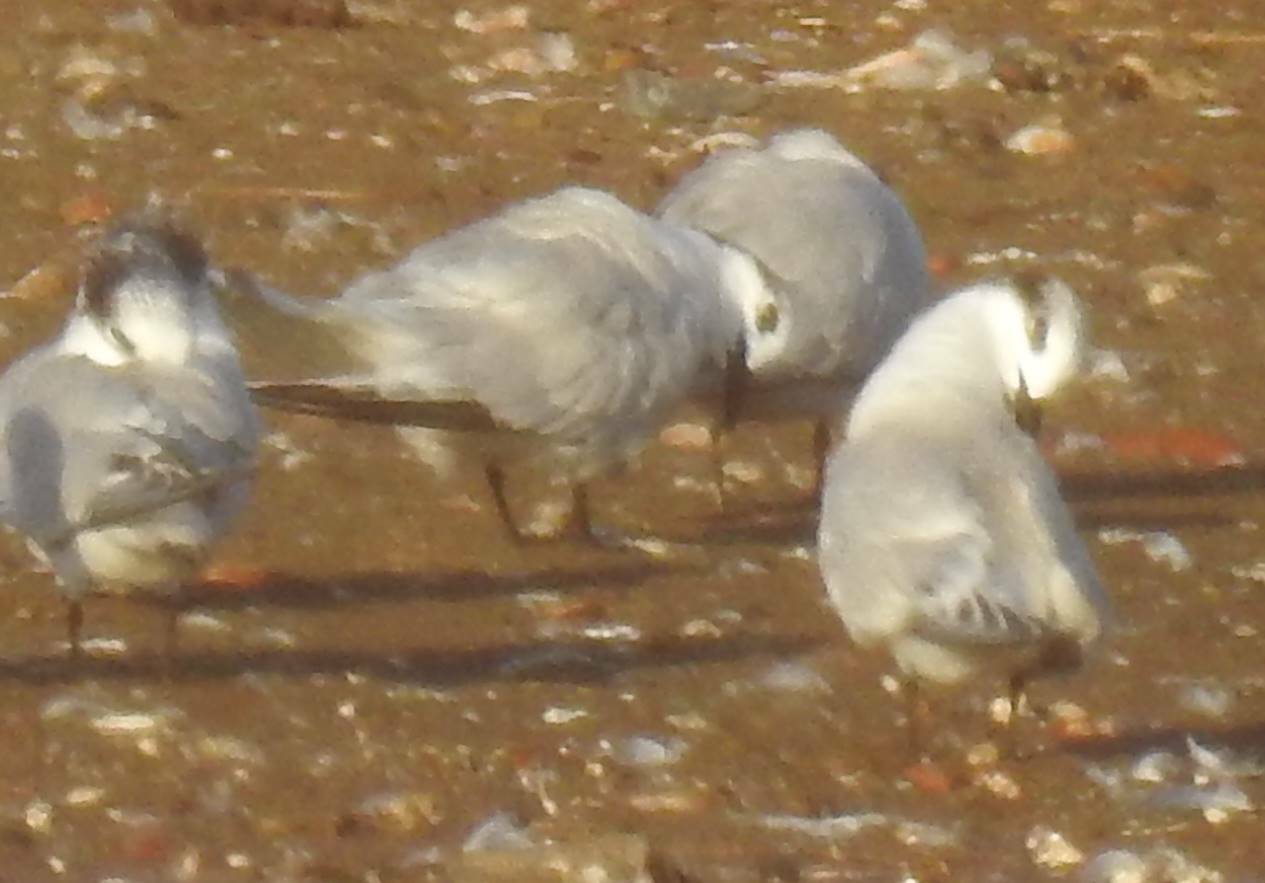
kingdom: Animalia
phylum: Chordata
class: Aves
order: Charadriiformes
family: Laridae
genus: Thalasseus
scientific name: Thalasseus sandvicensis
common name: Sandwich tern
